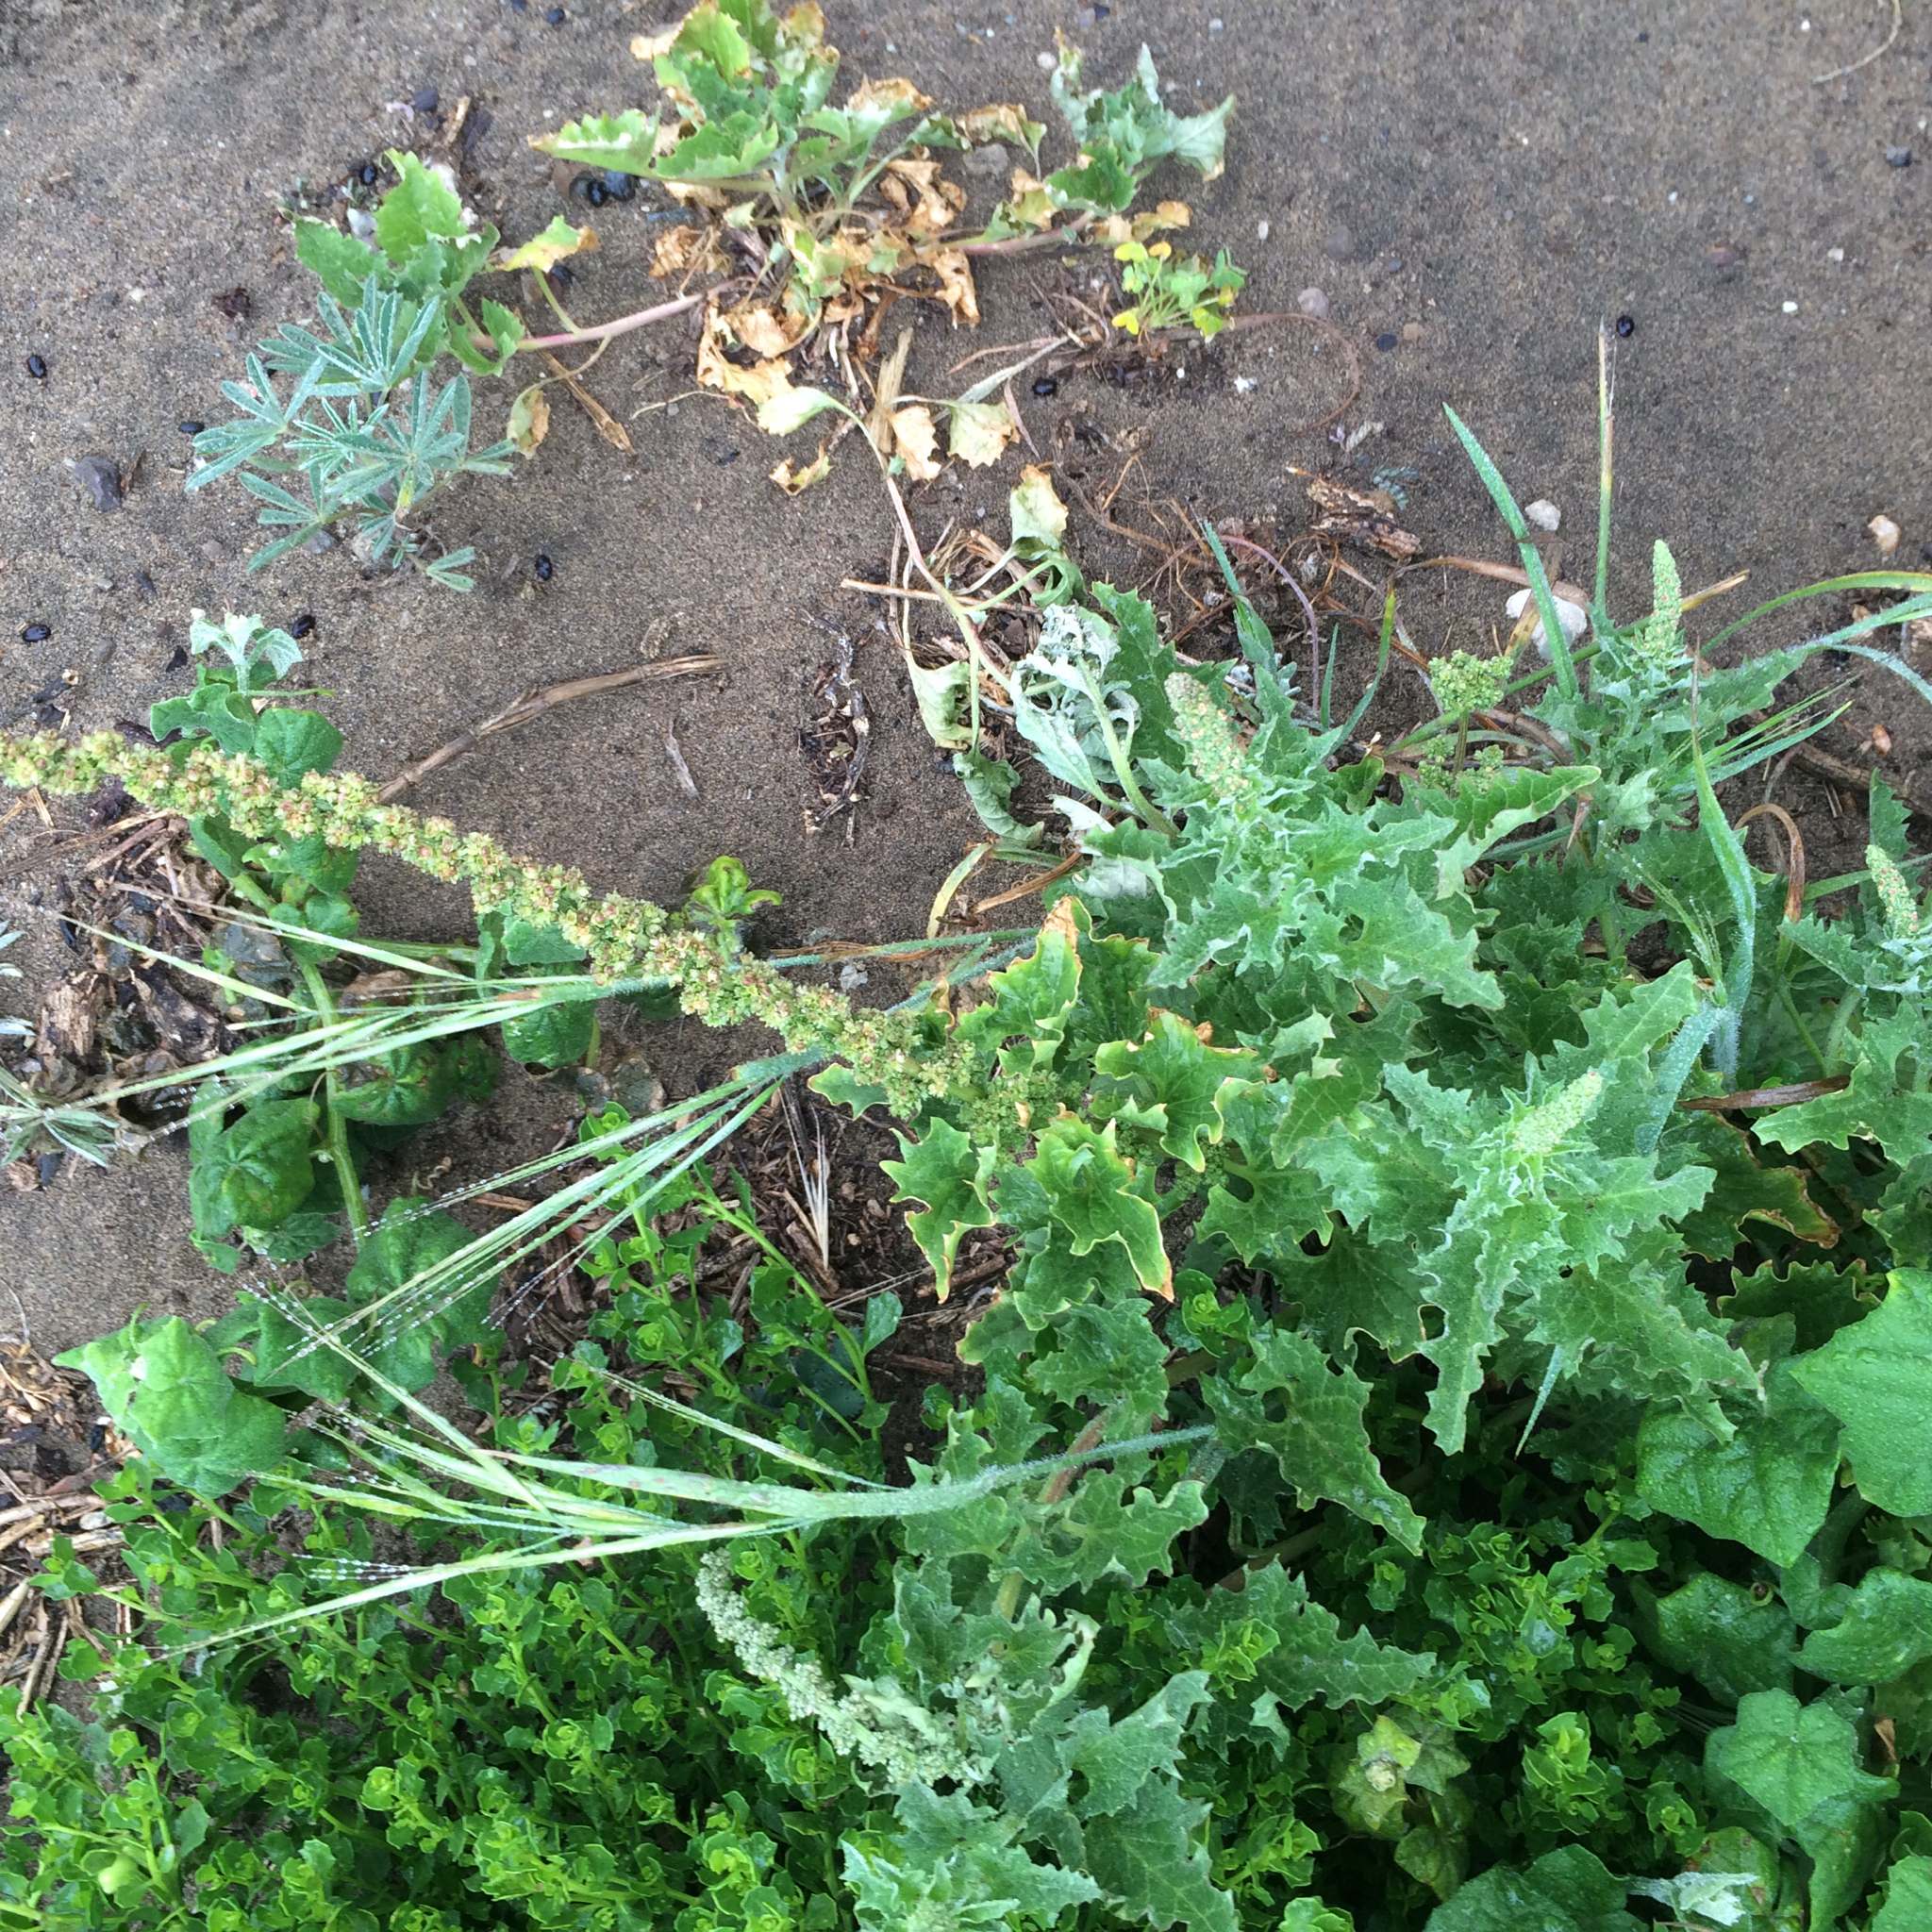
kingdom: Plantae
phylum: Tracheophyta
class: Magnoliopsida
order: Caryophyllales
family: Amaranthaceae
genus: Blitum
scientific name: Blitum californicum
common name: California goosefoot
